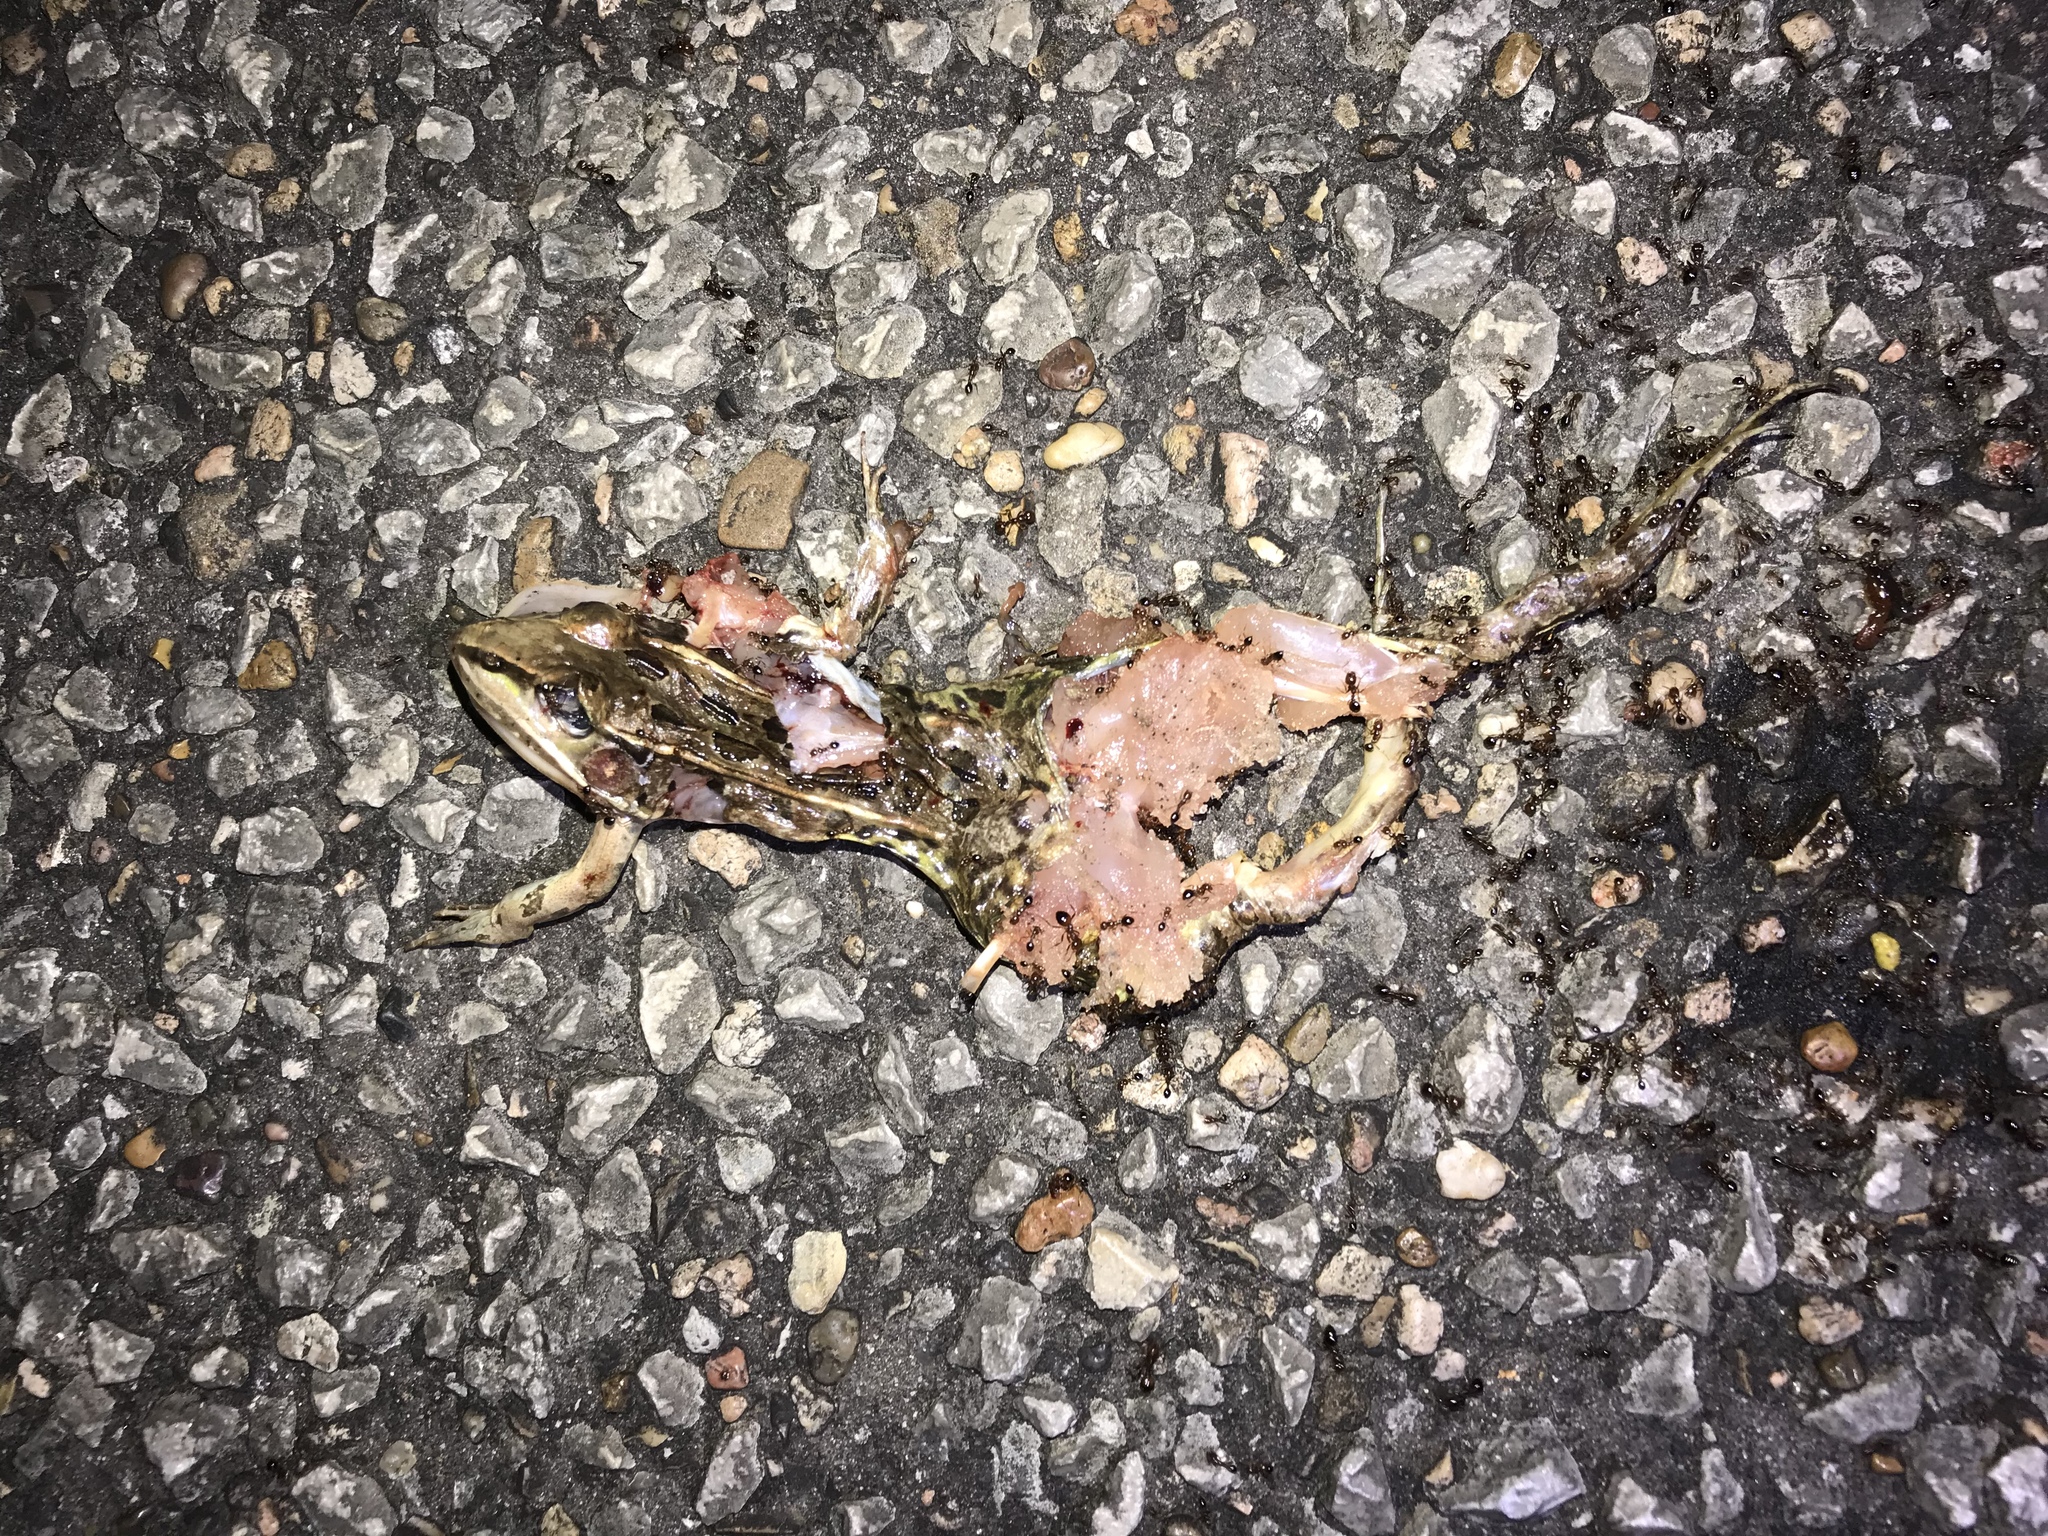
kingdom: Animalia
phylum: Chordata
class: Amphibia
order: Anura
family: Ranidae
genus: Lithobates
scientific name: Lithobates sphenocephalus
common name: Southern leopard frog
